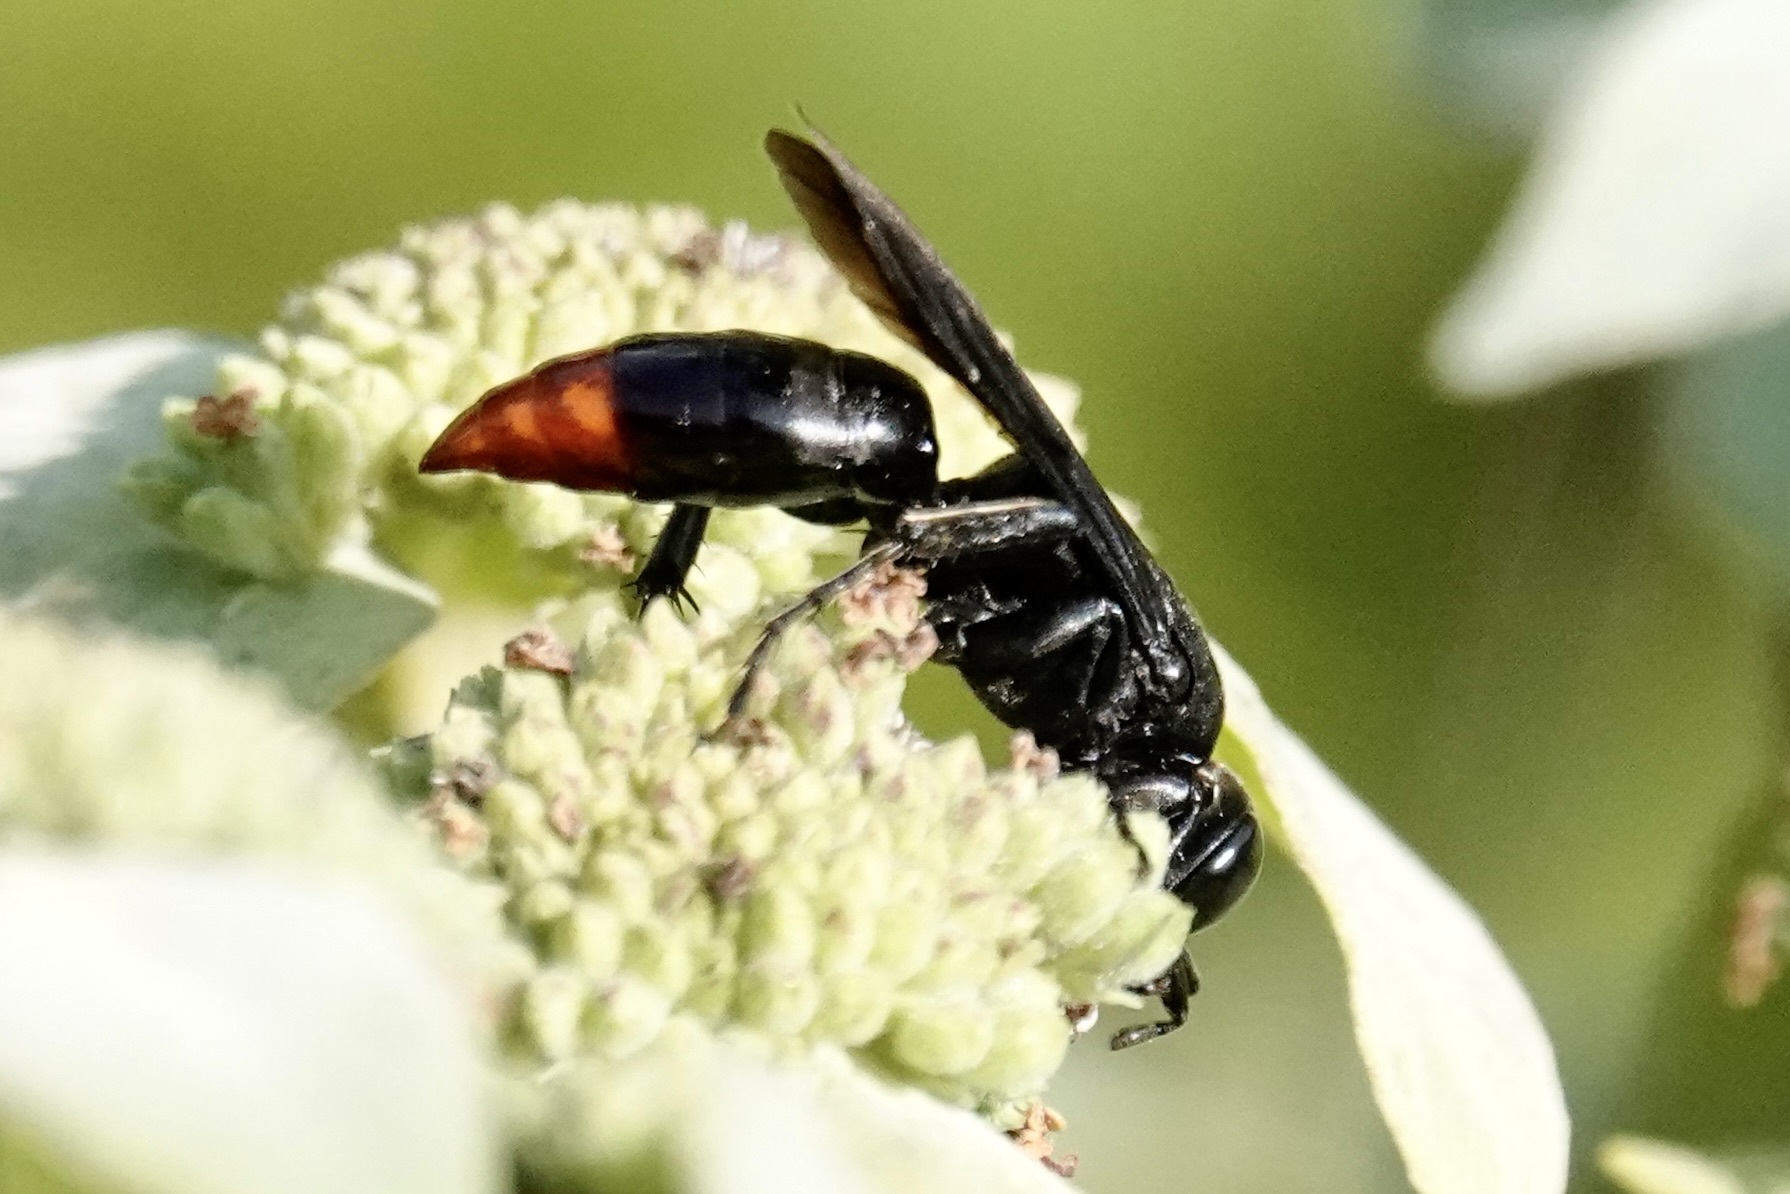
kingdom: Animalia
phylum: Arthropoda
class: Insecta
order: Hymenoptera
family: Crabronidae
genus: Larra
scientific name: Larra analis
